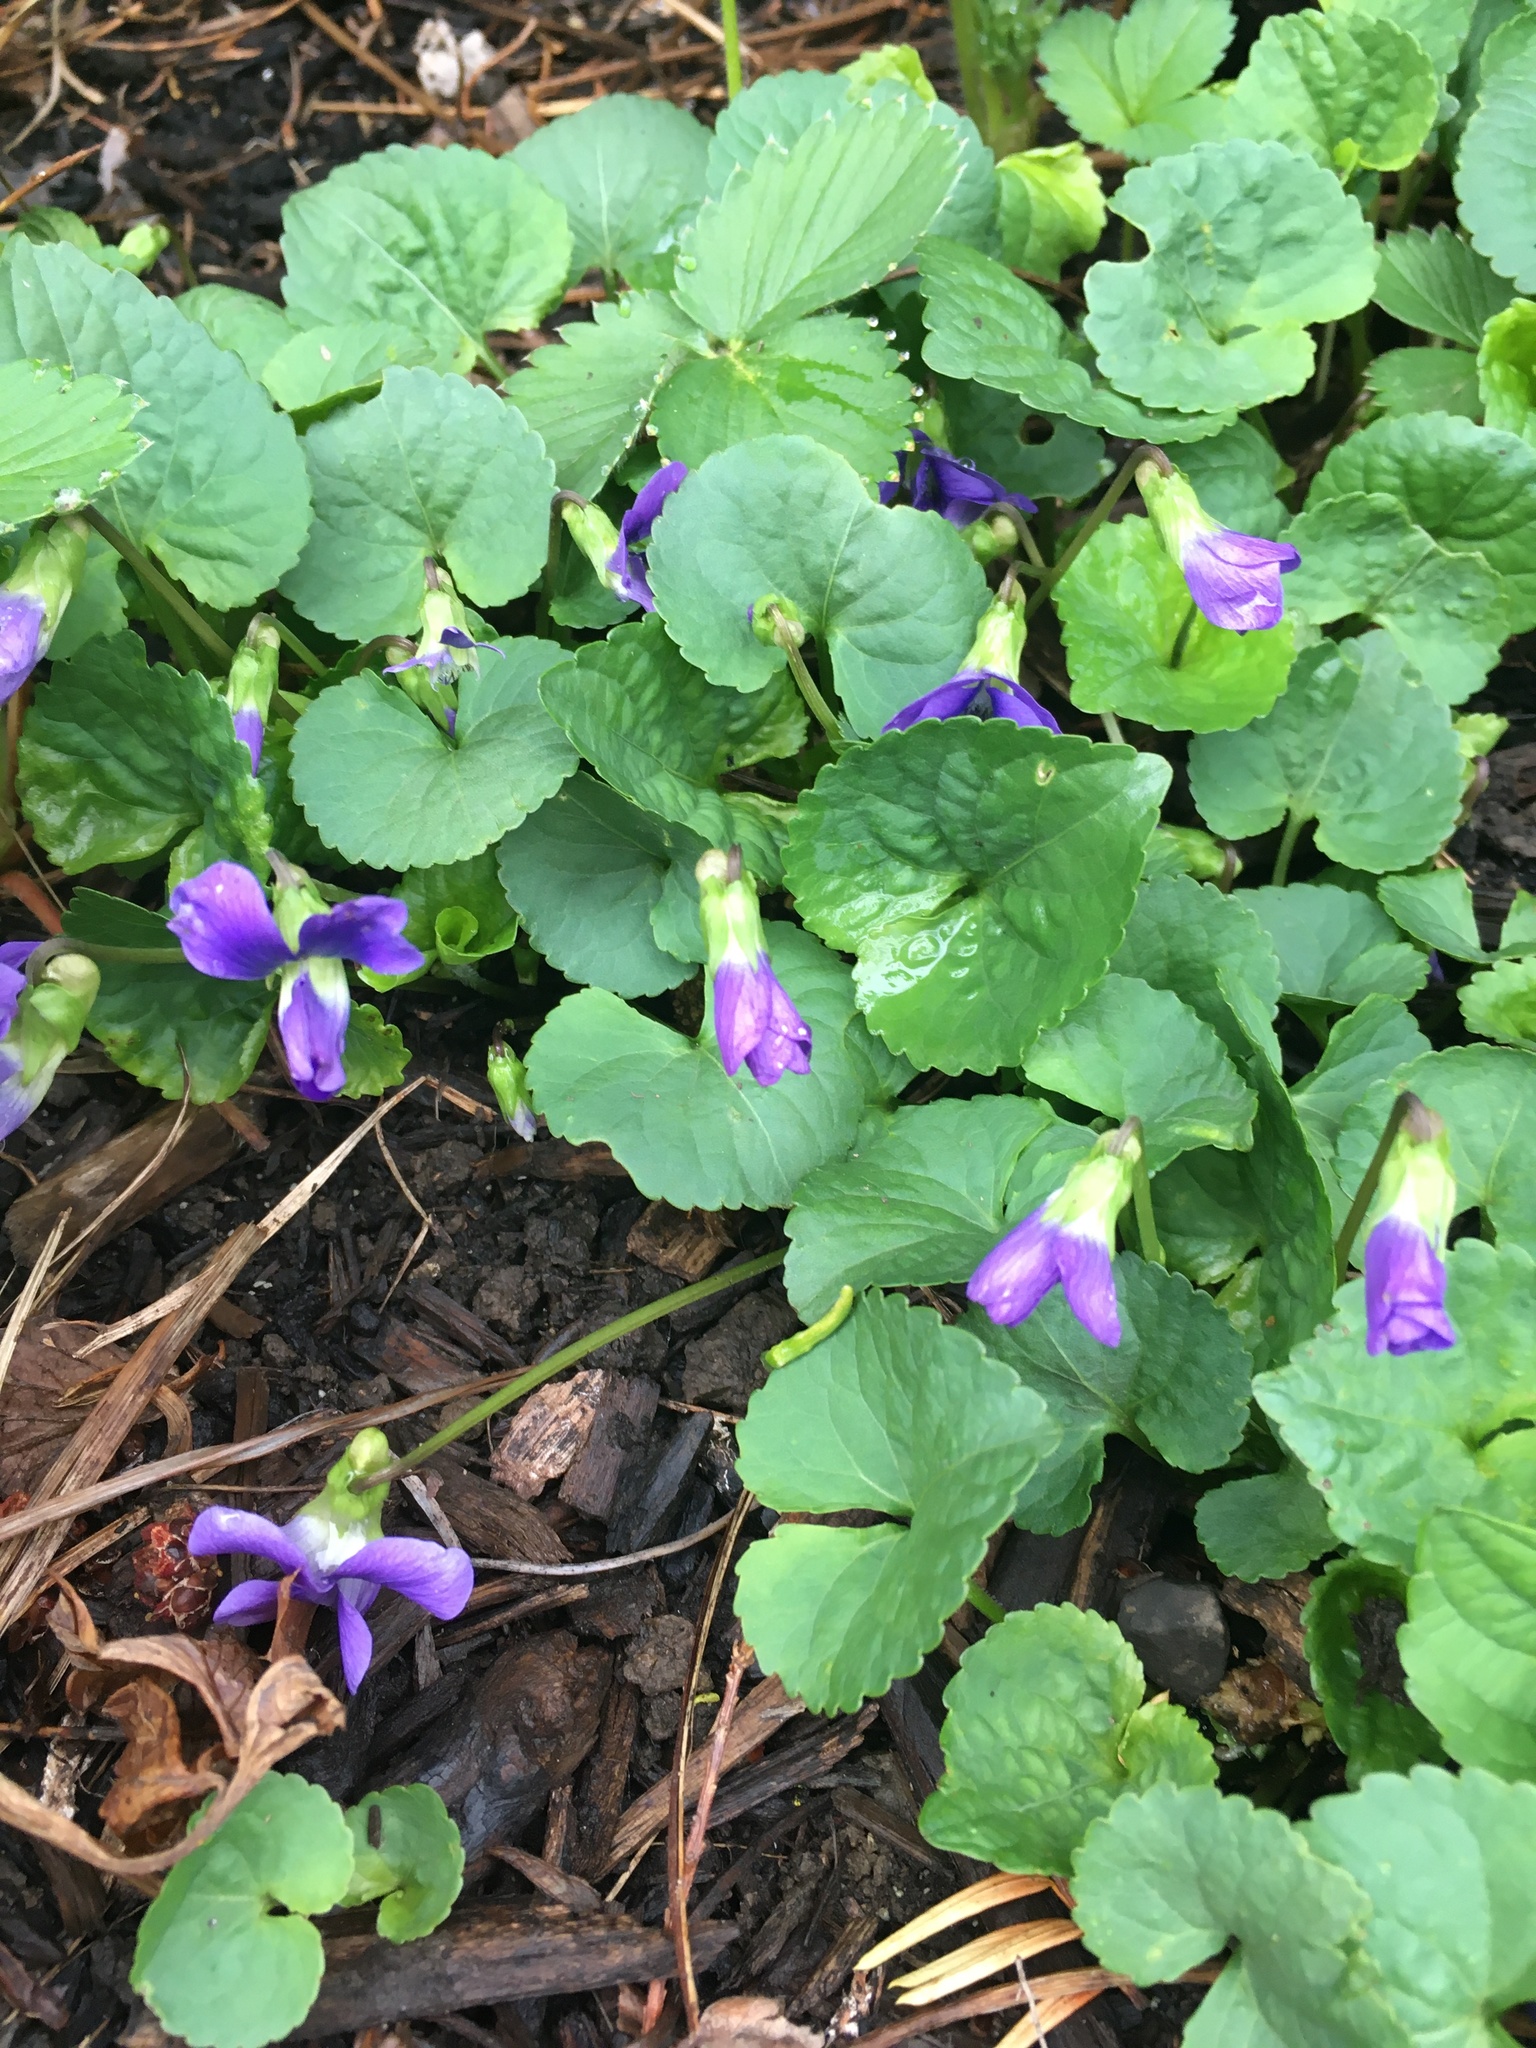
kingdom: Plantae
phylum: Tracheophyta
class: Magnoliopsida
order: Malpighiales
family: Violaceae
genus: Viola
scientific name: Viola sororia
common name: Dooryard violet
